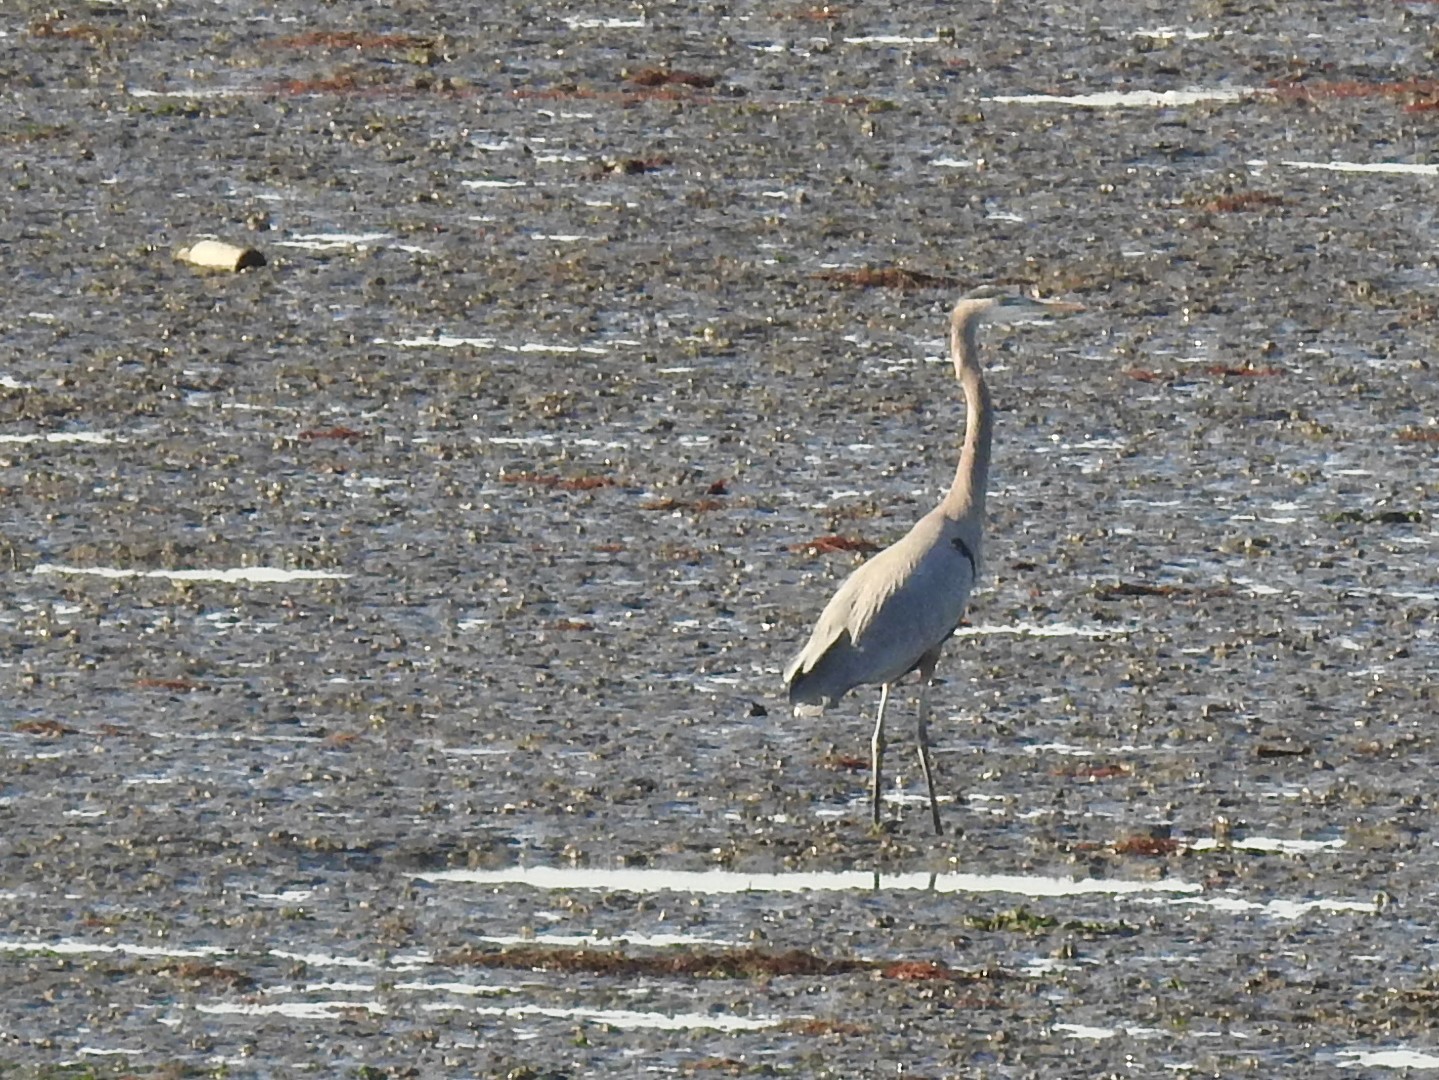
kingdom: Animalia
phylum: Chordata
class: Aves
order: Pelecaniformes
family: Ardeidae
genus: Ardea
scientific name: Ardea herodias
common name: Great blue heron
